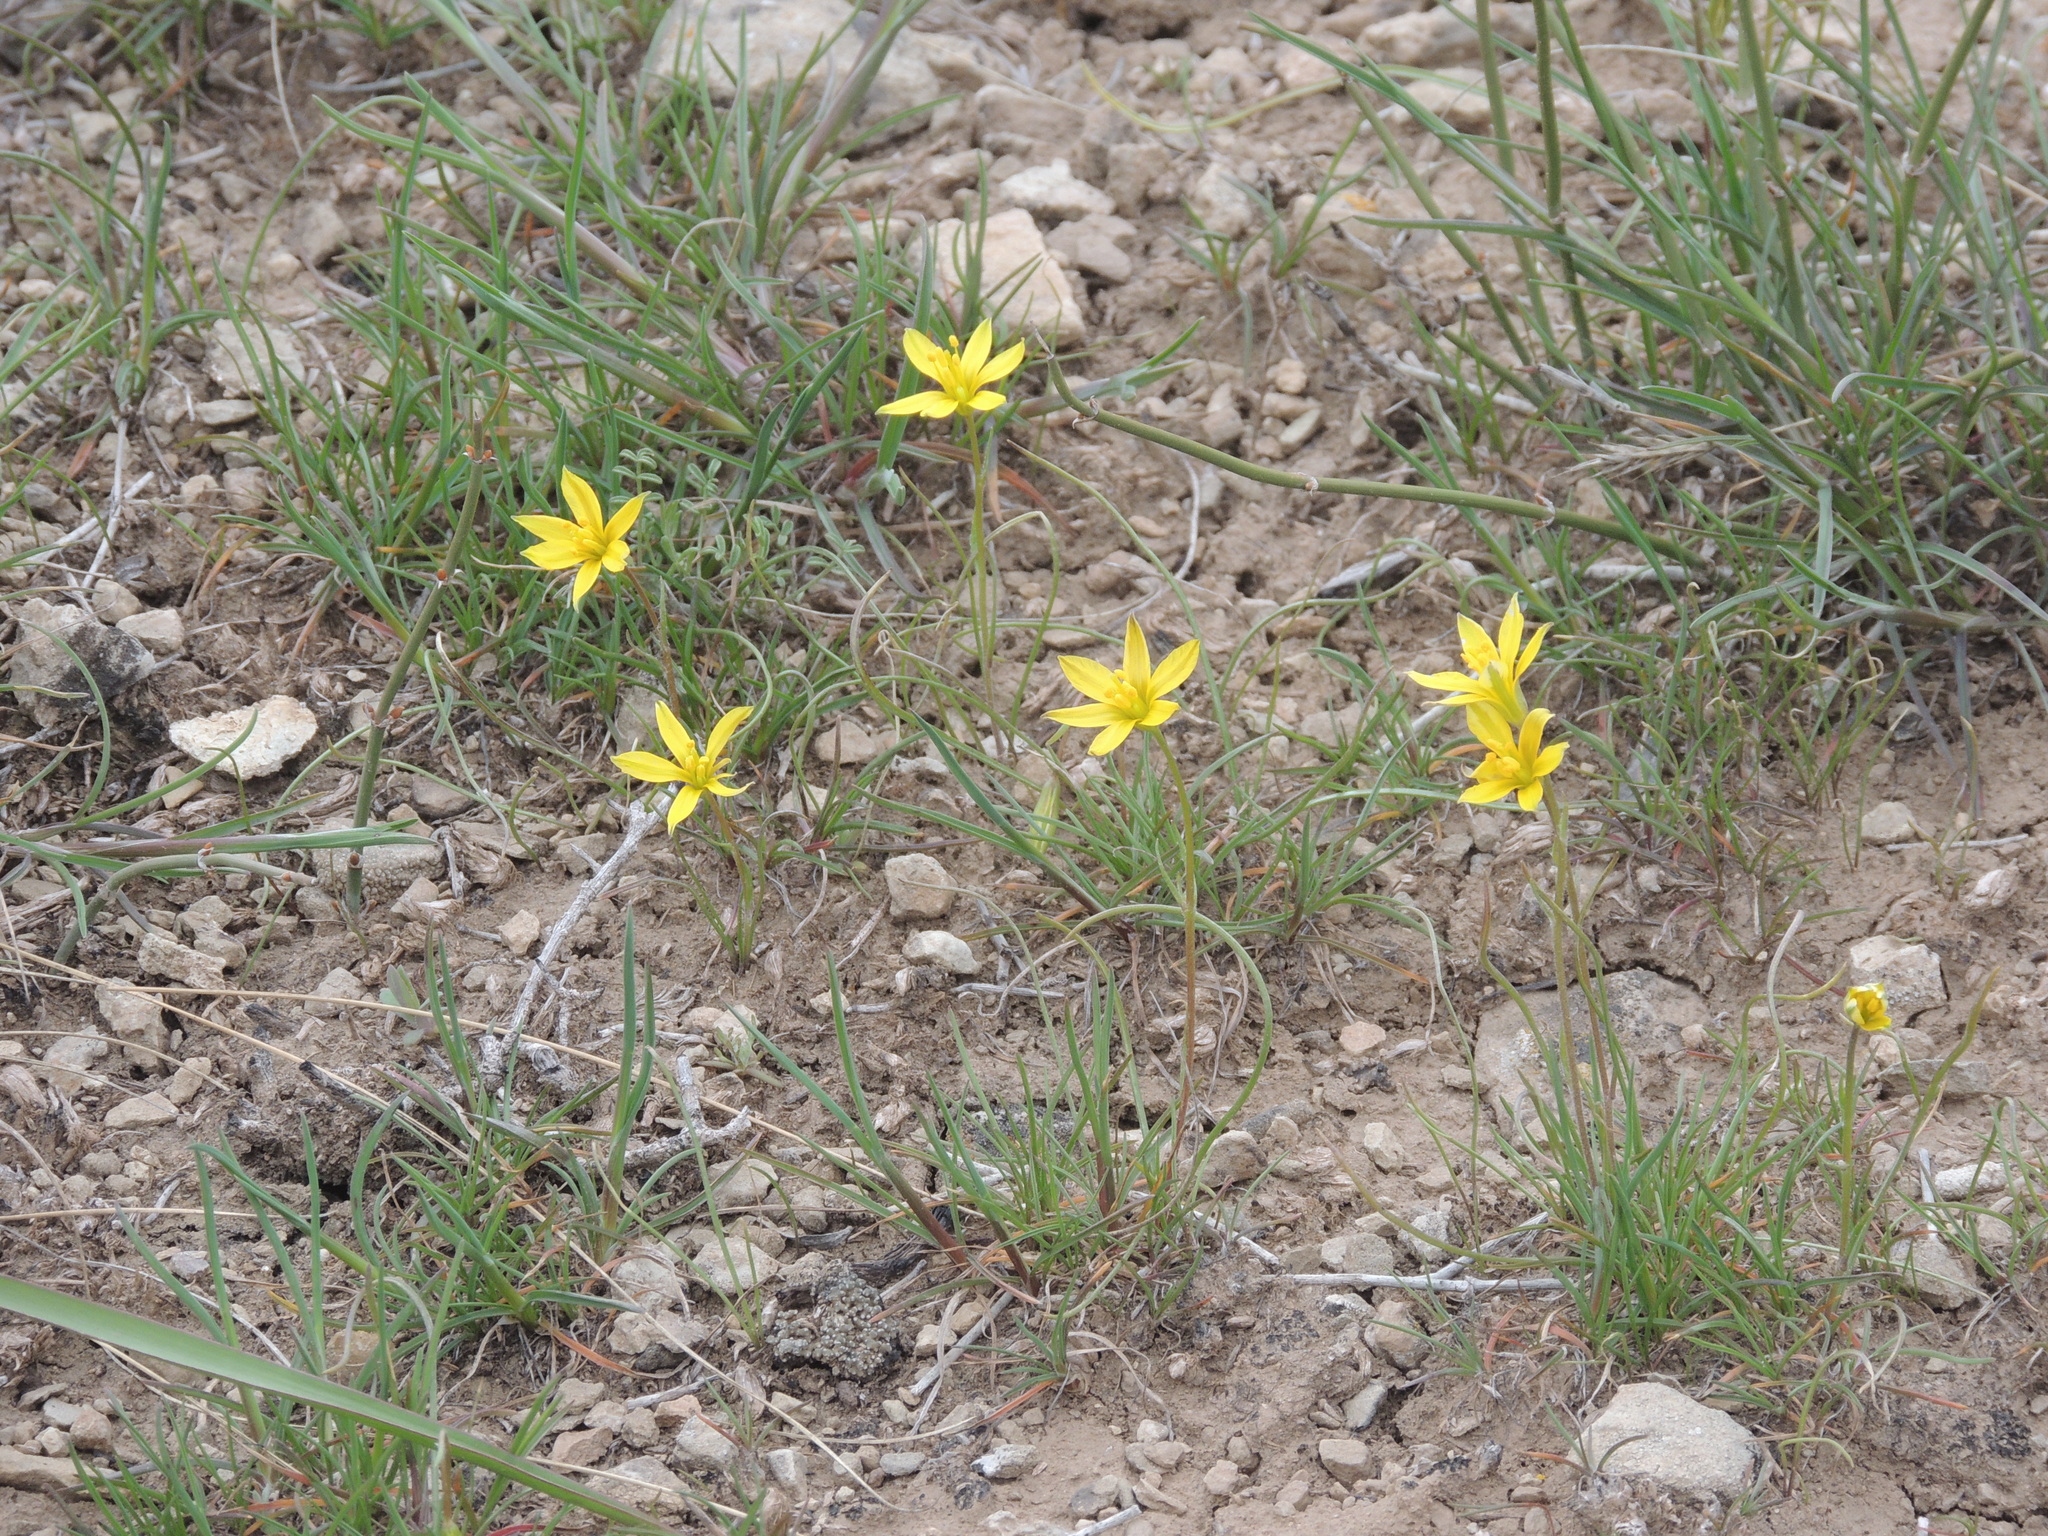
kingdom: Plantae
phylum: Tracheophyta
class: Liliopsida
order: Liliales
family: Liliaceae
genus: Gagea
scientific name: Gagea bulbifera
